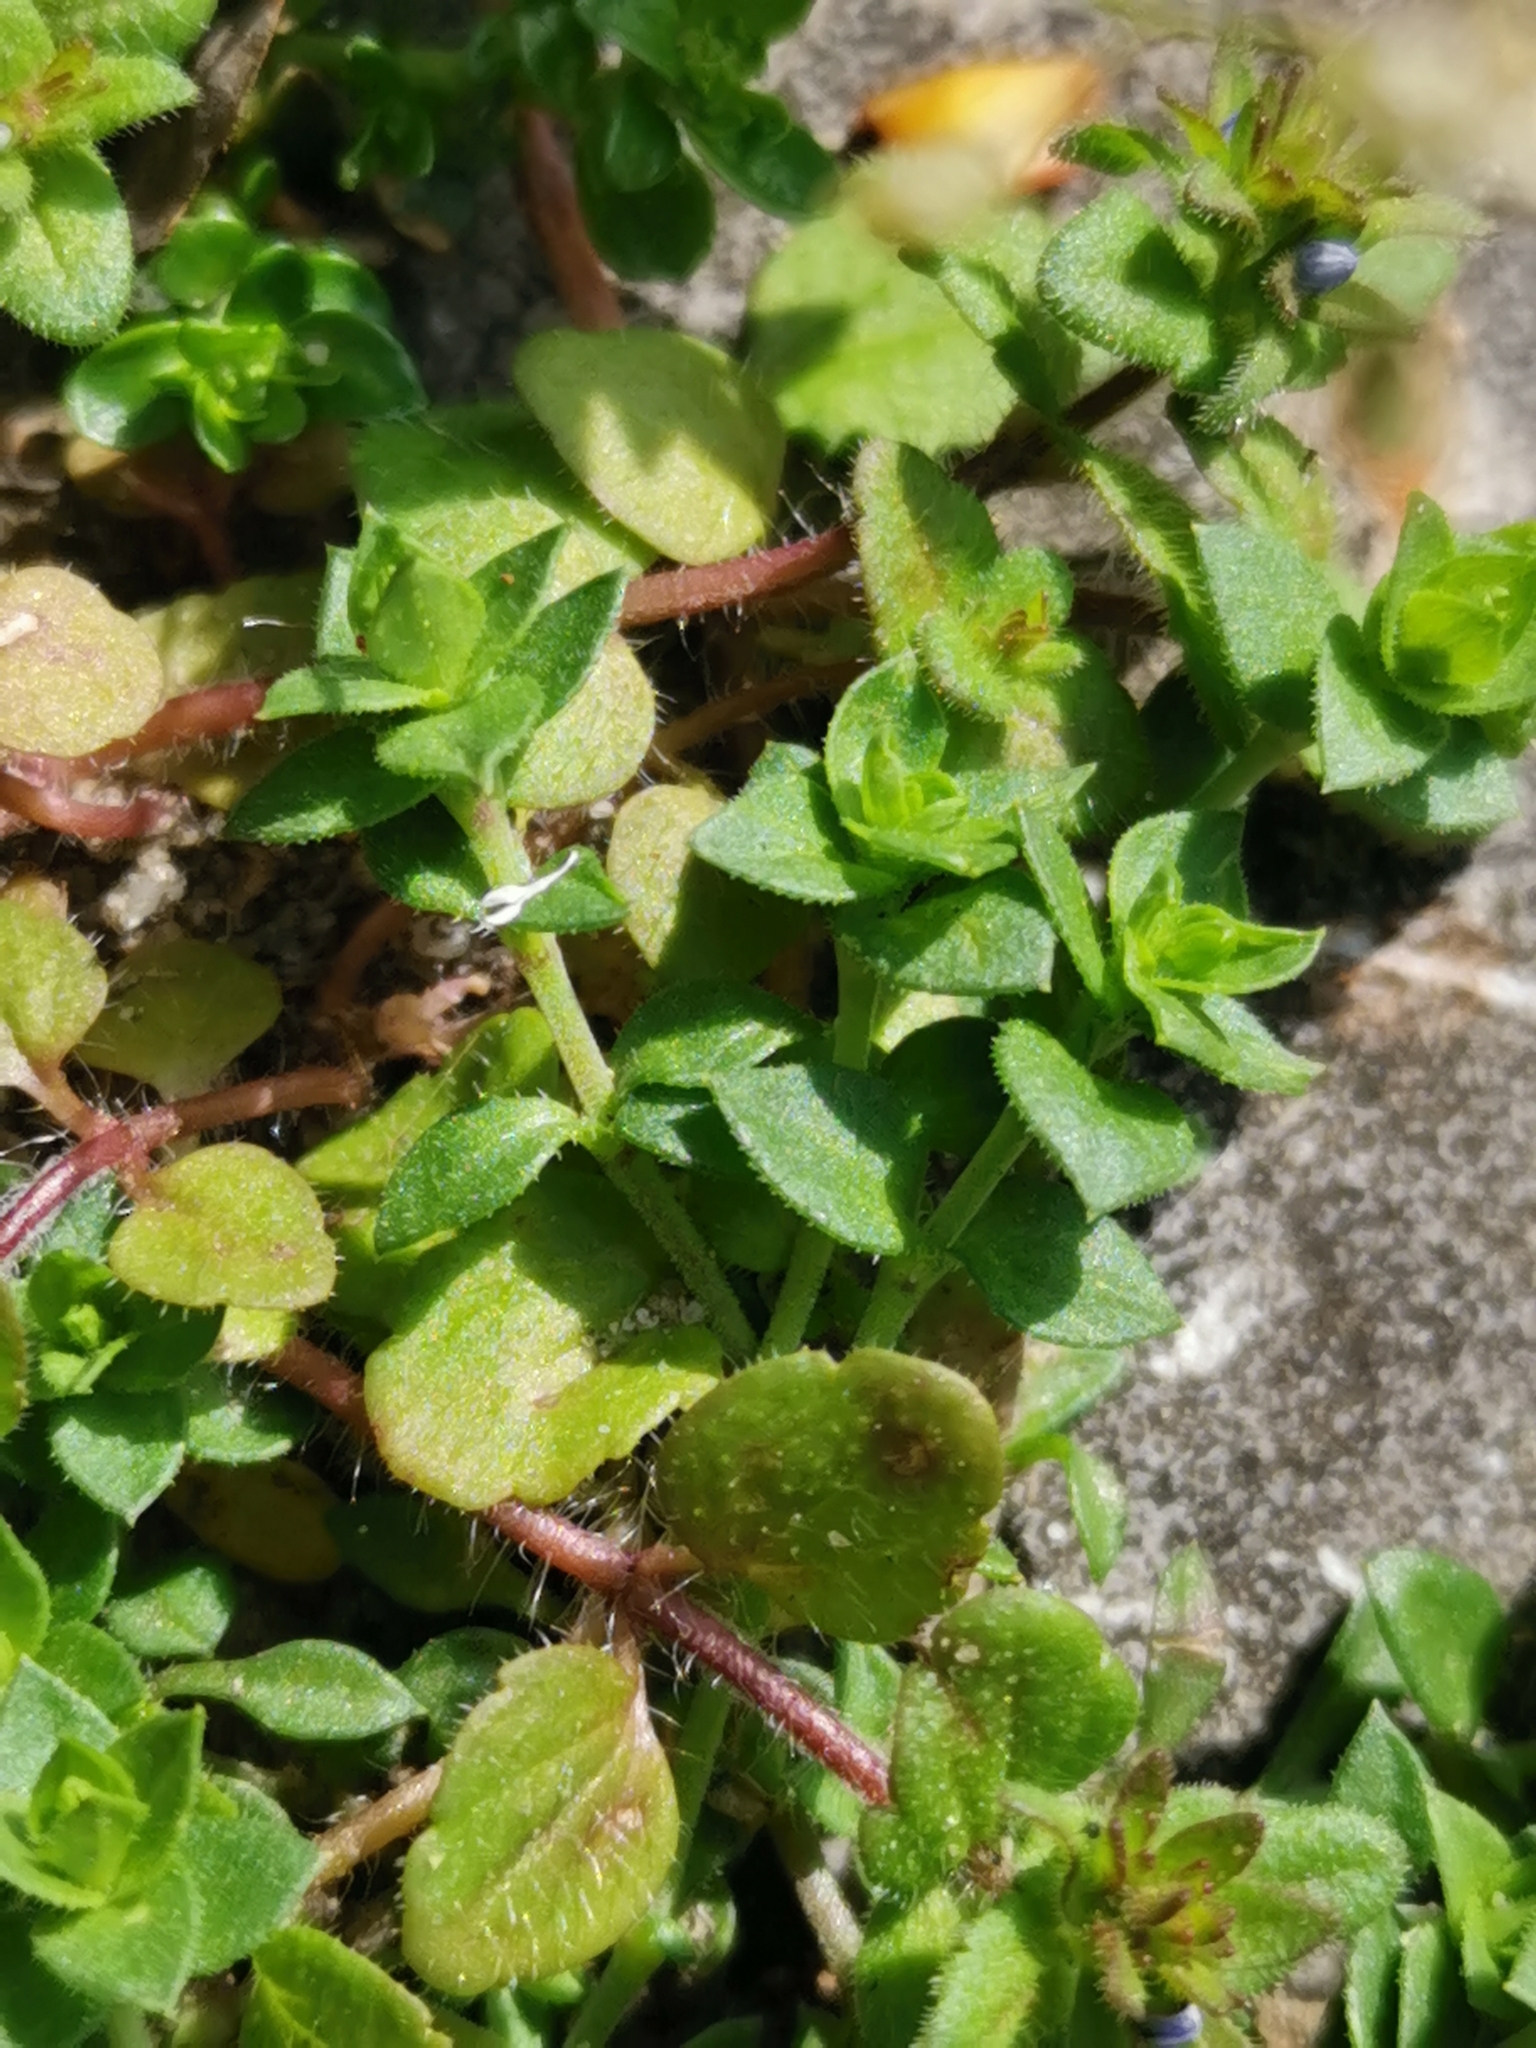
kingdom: Plantae
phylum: Tracheophyta
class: Magnoliopsida
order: Lamiales
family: Plantaginaceae
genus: Veronica
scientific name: Veronica arvensis
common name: Corn speedwell
